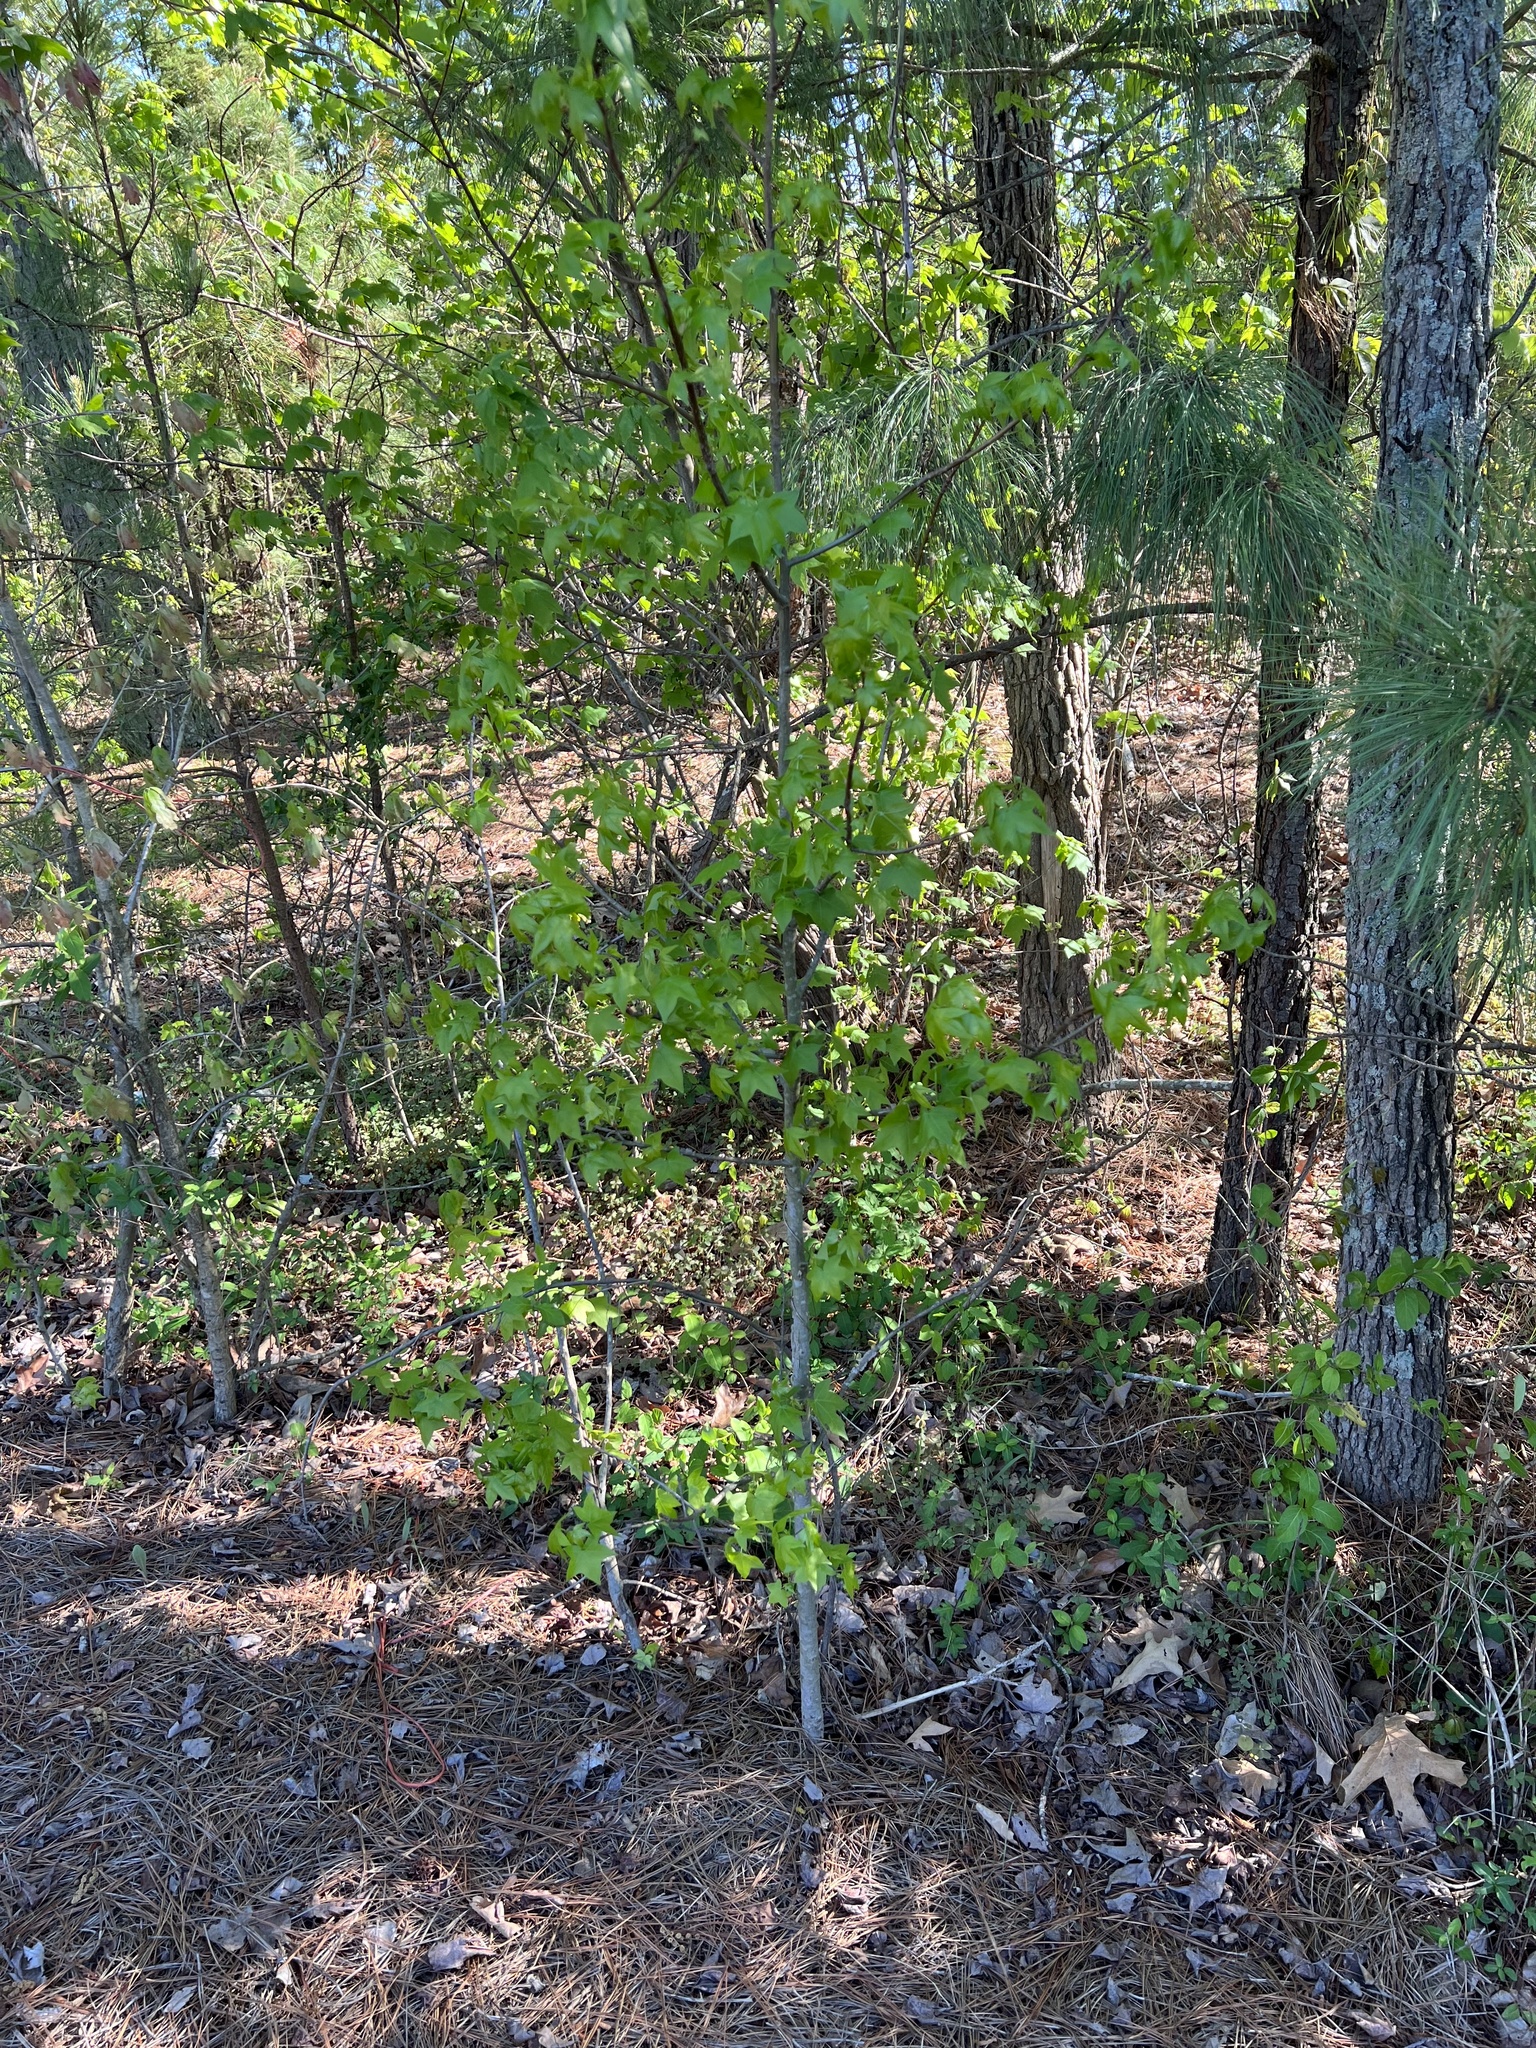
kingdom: Plantae
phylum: Tracheophyta
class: Magnoliopsida
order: Saxifragales
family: Altingiaceae
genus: Liquidambar
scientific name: Liquidambar styraciflua
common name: Sweet gum
